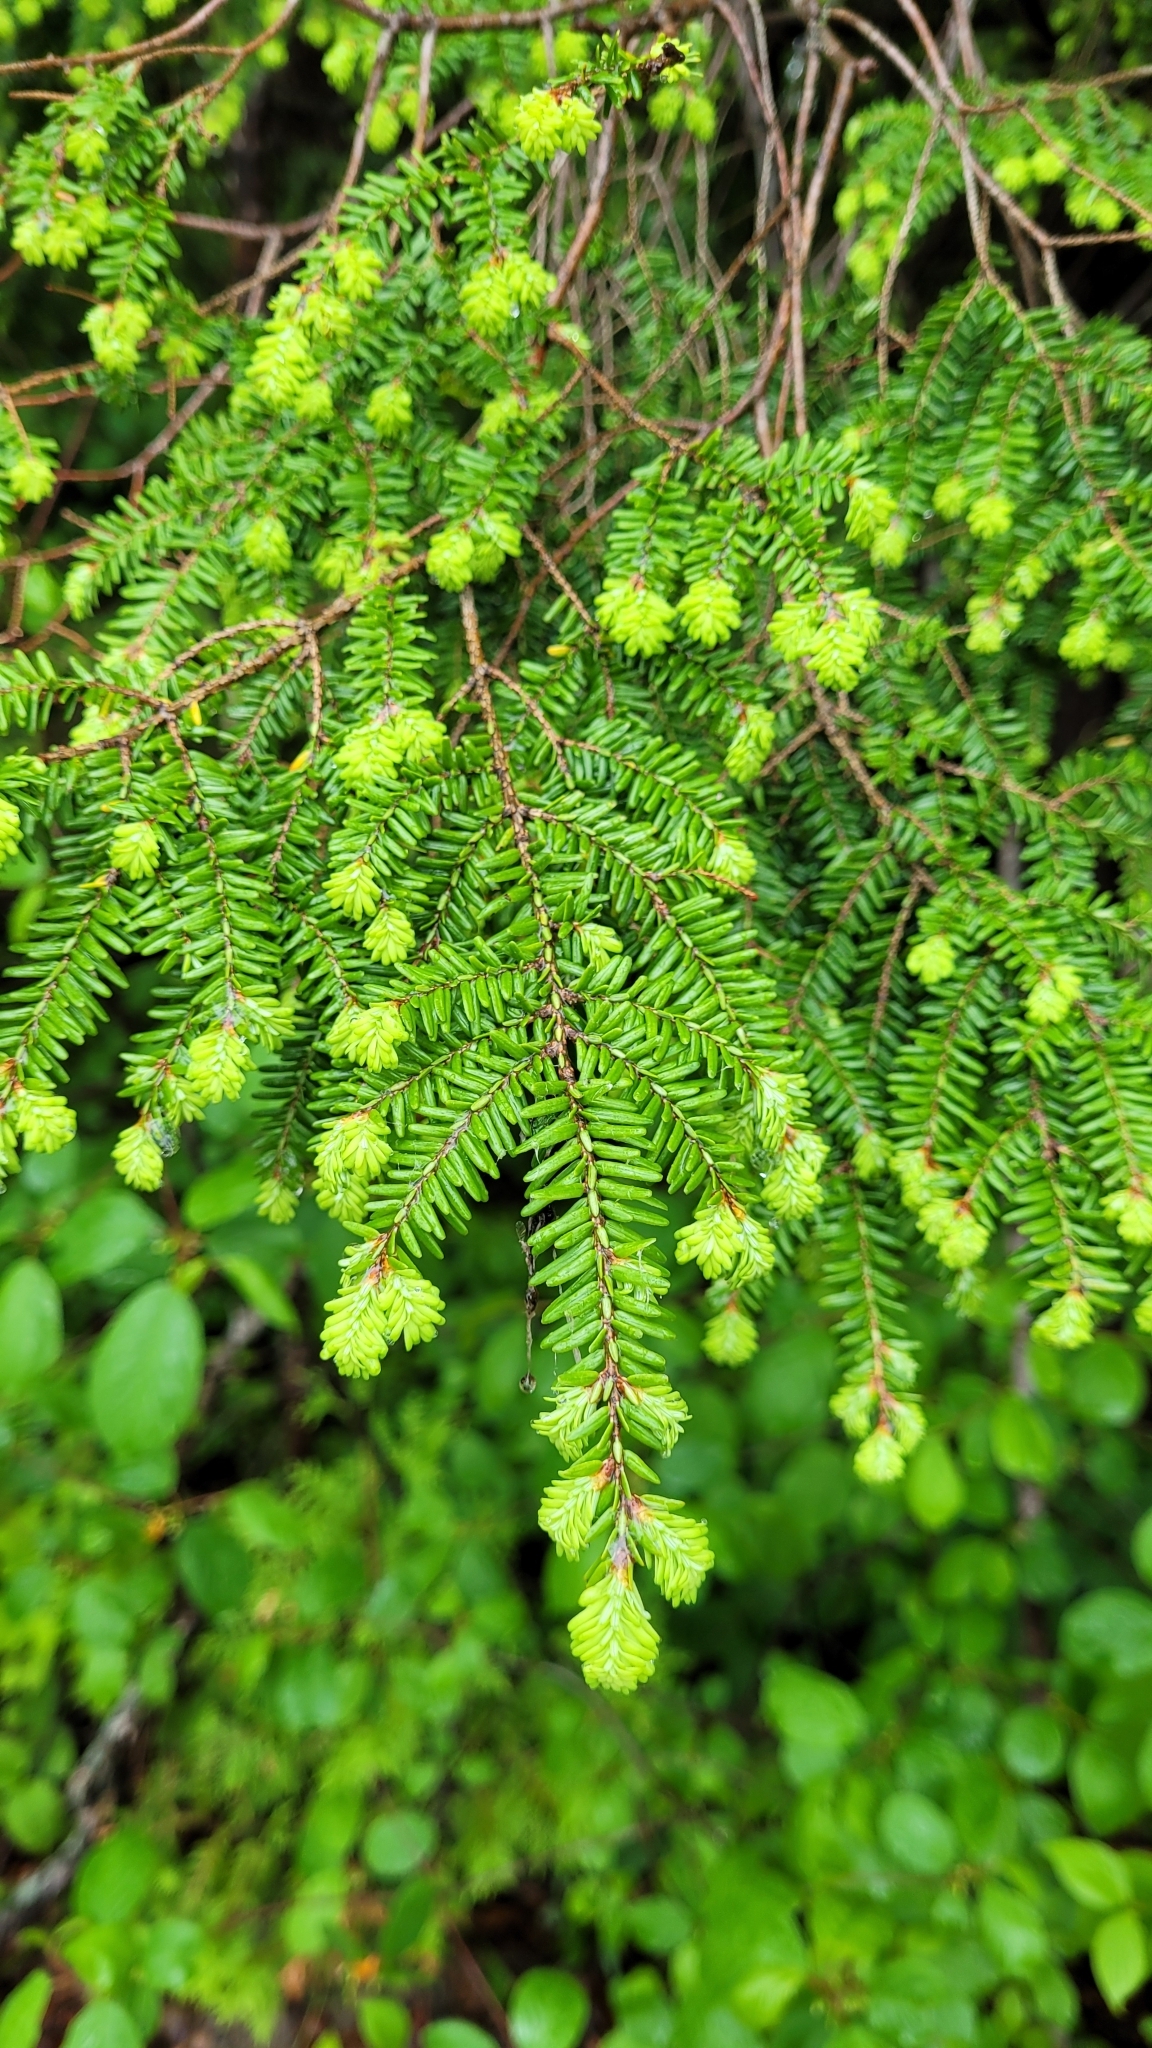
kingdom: Plantae
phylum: Tracheophyta
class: Pinopsida
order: Pinales
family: Pinaceae
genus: Tsuga
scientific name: Tsuga canadensis
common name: Eastern hemlock
